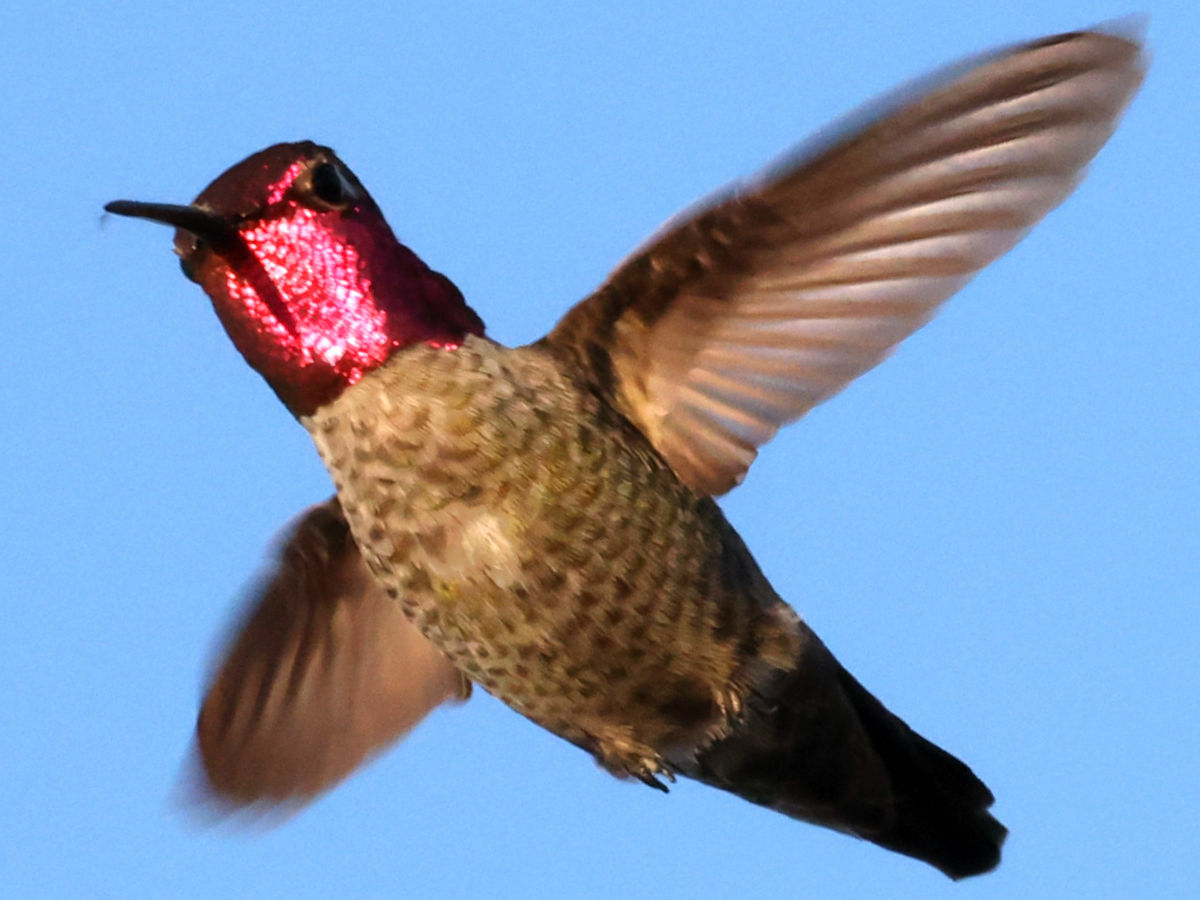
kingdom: Animalia
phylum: Chordata
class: Aves
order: Apodiformes
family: Trochilidae
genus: Calypte
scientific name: Calypte anna
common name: Anna's hummingbird
